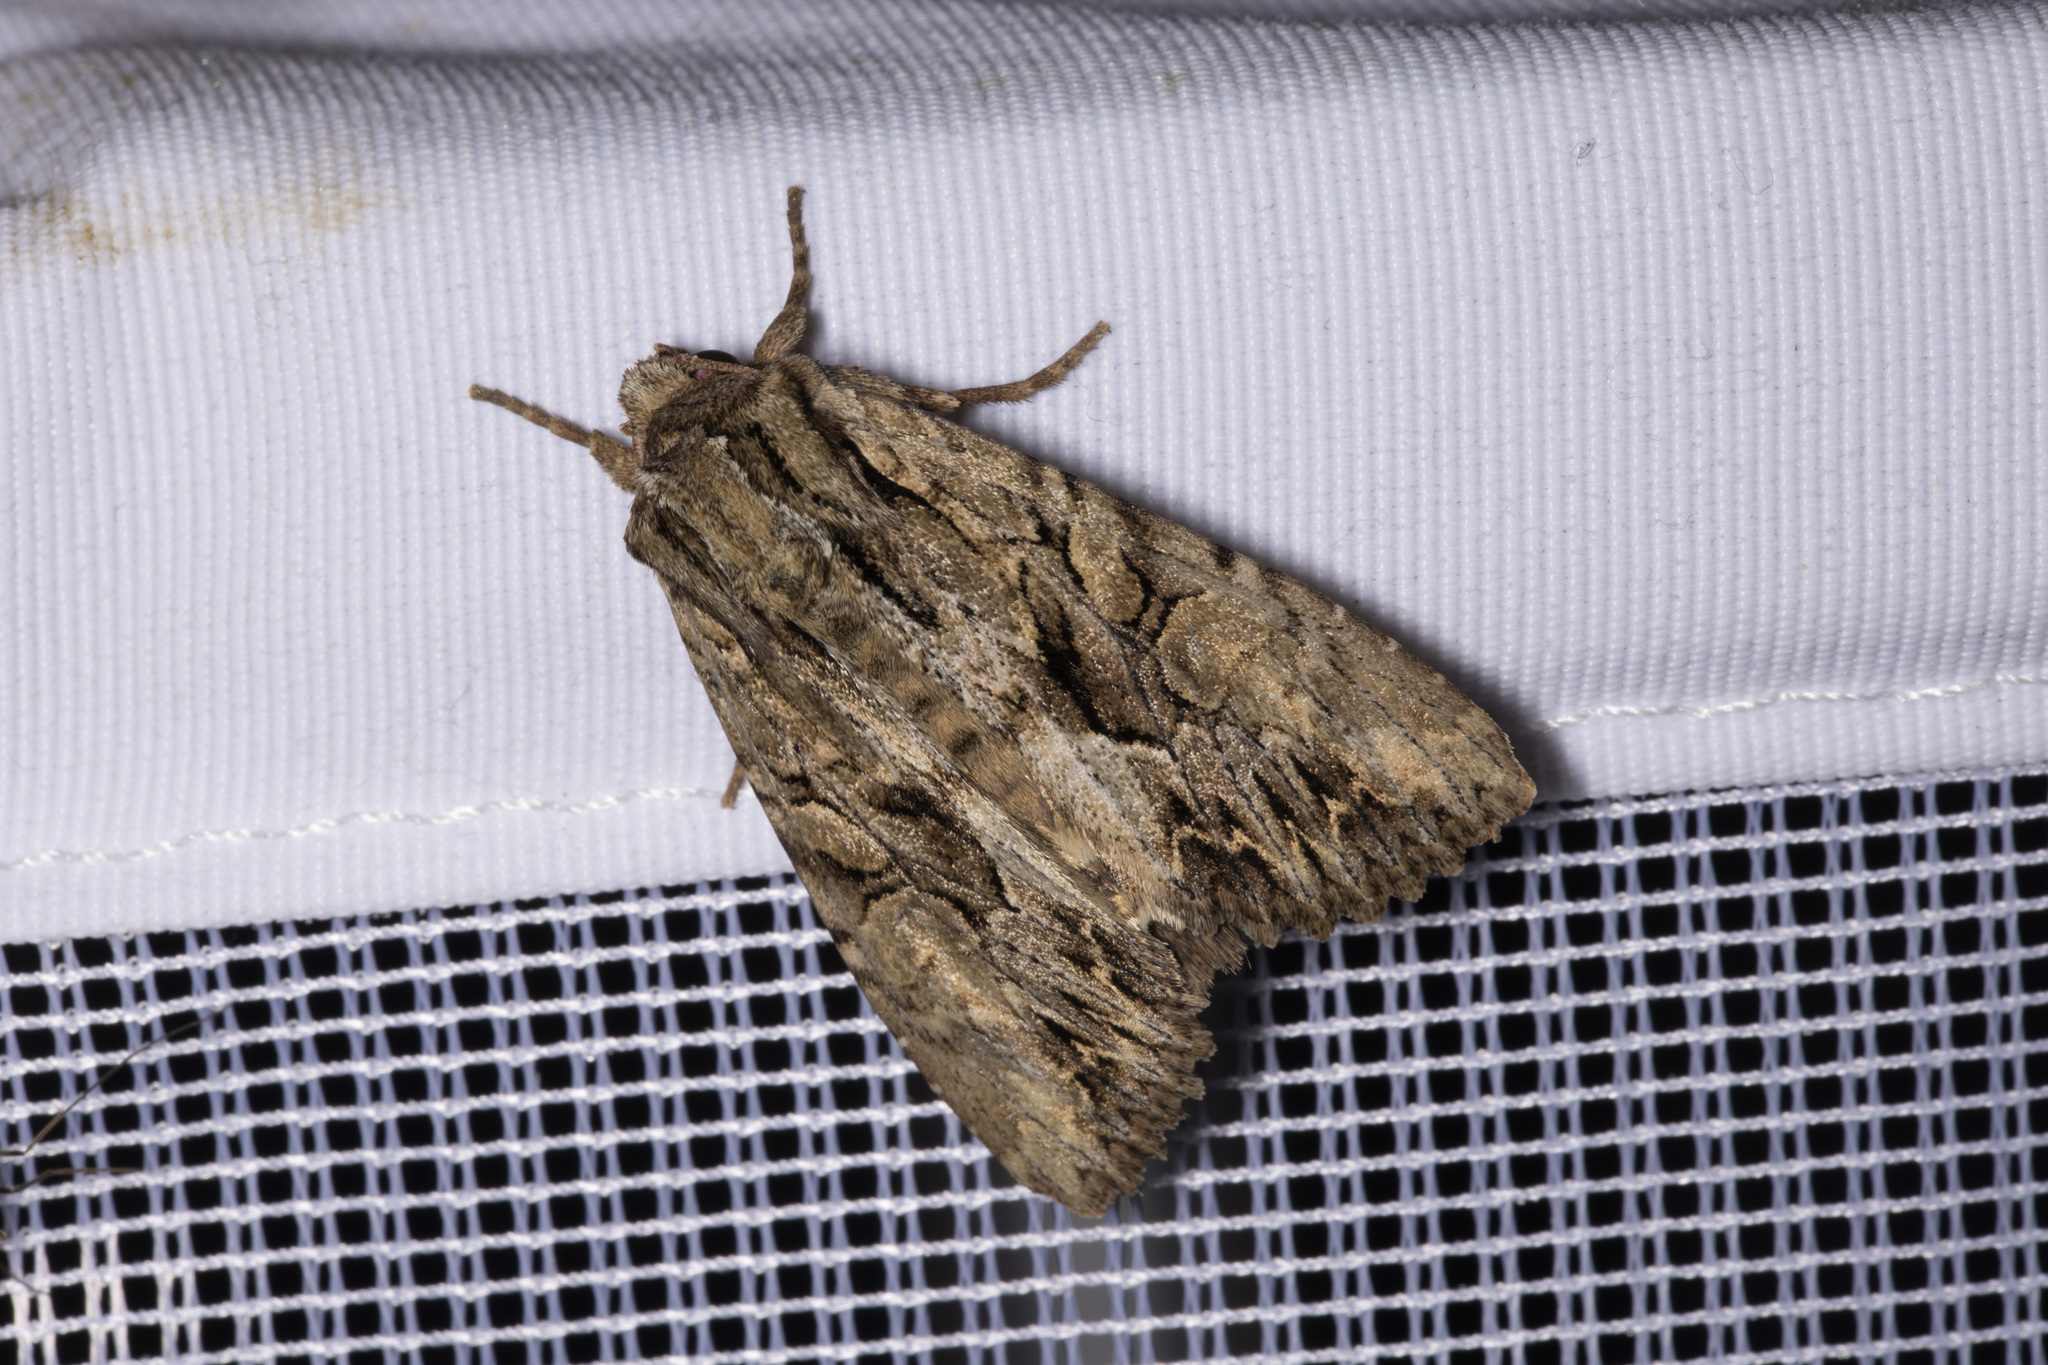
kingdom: Animalia
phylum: Arthropoda
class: Insecta
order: Lepidoptera
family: Noctuidae
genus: Apamea
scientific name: Apamea monoglypha
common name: Dark arches
